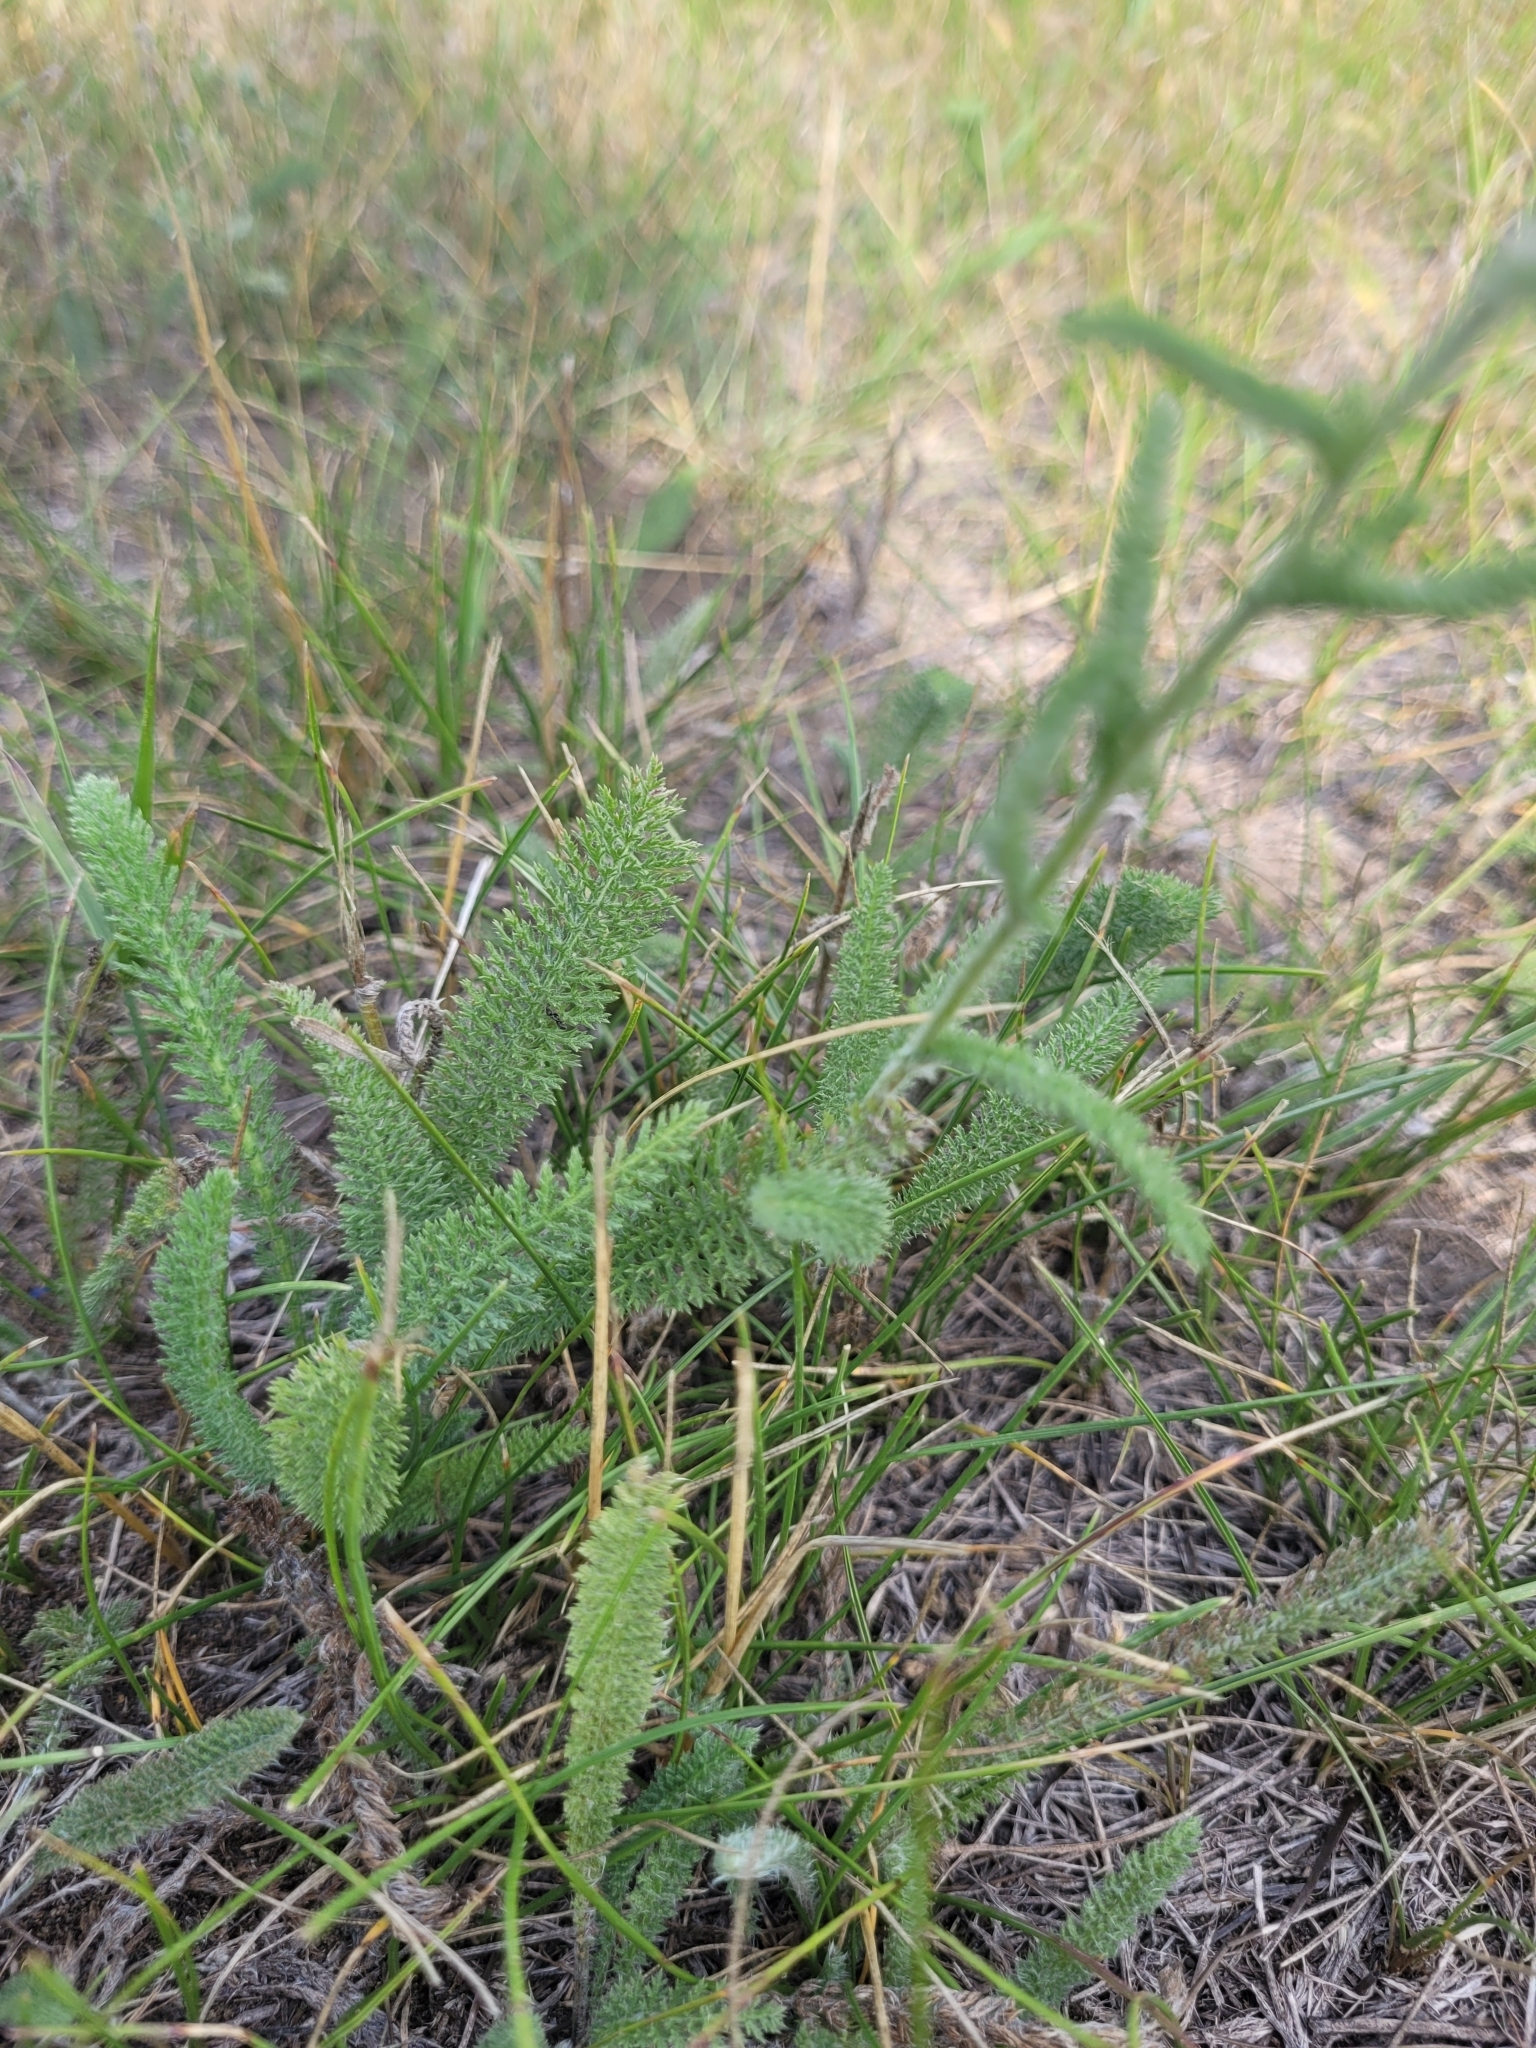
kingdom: Plantae
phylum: Tracheophyta
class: Magnoliopsida
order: Asterales
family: Asteraceae
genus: Achillea
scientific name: Achillea millefolium
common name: Yarrow
